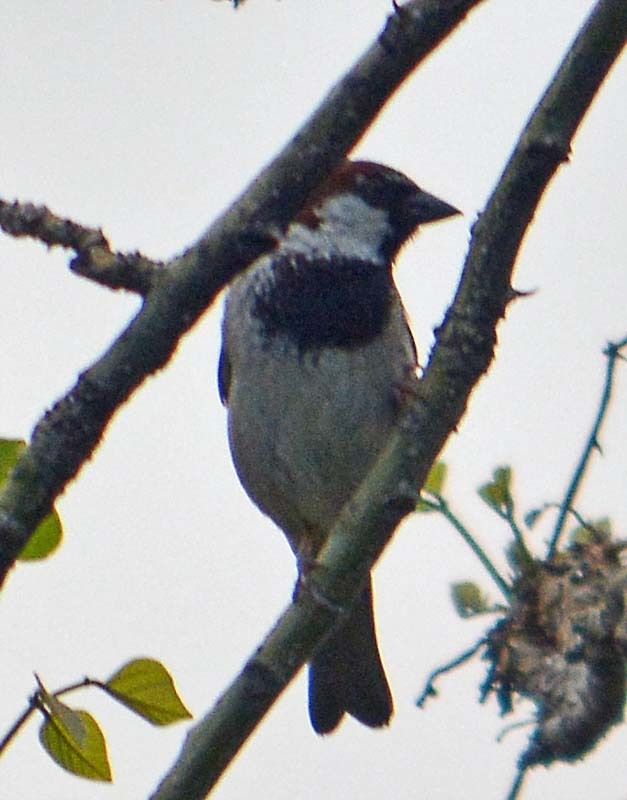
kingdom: Animalia
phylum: Chordata
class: Aves
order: Passeriformes
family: Passeridae
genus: Passer
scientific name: Passer domesticus
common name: House sparrow
